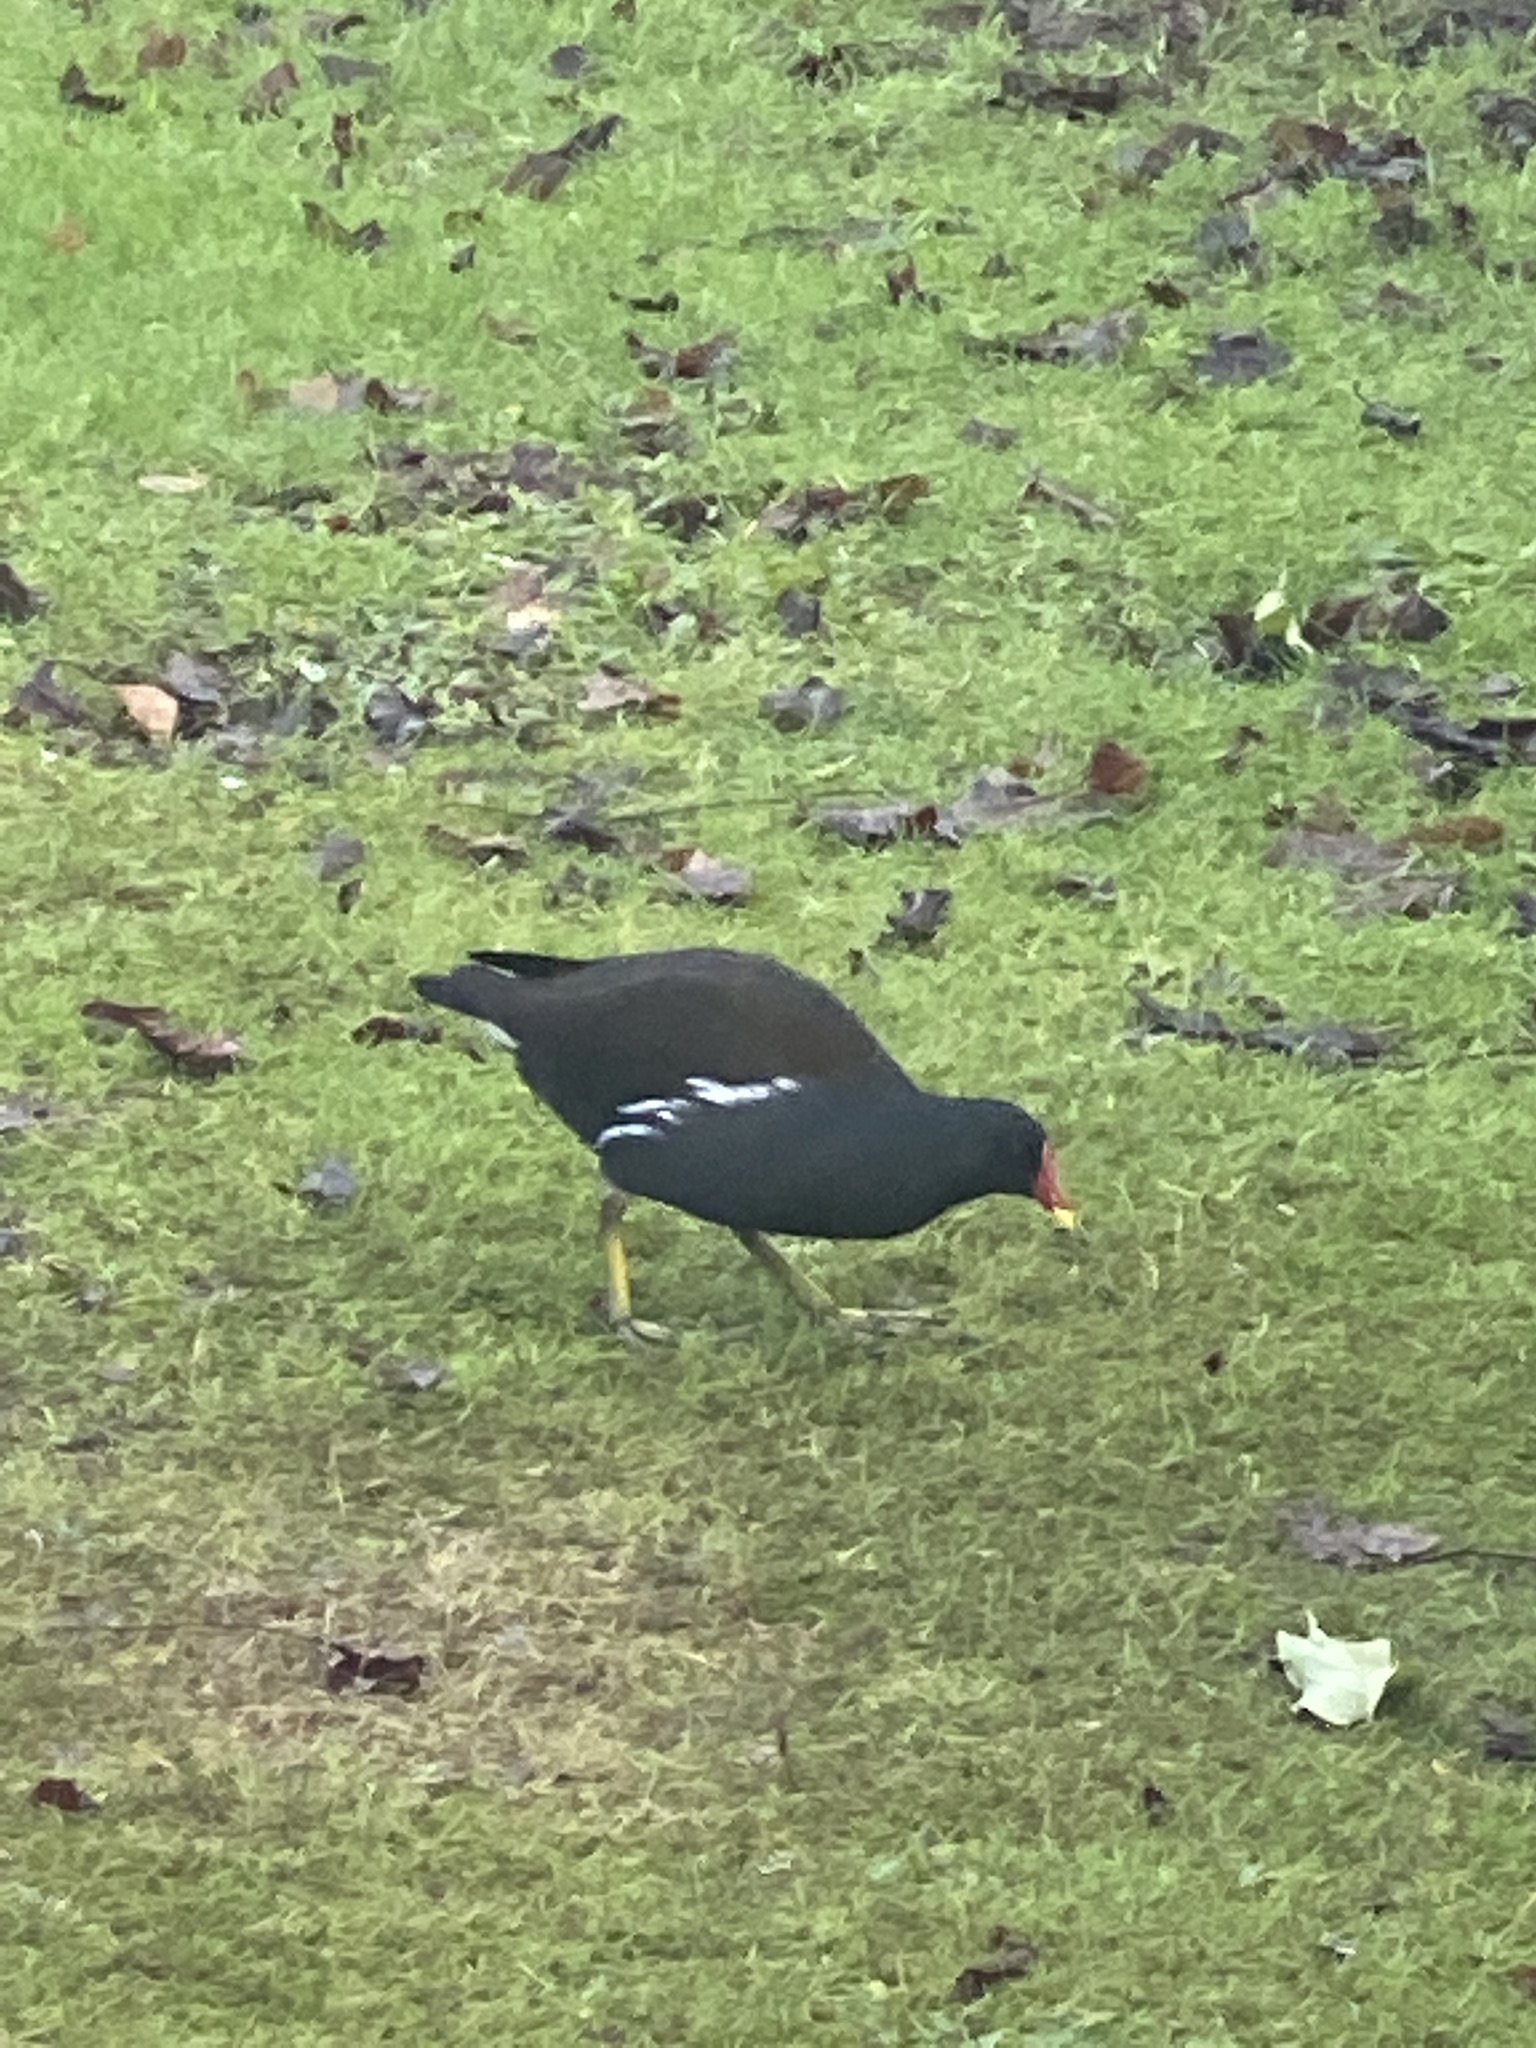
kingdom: Animalia
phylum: Chordata
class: Aves
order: Gruiformes
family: Rallidae
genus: Gallinula
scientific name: Gallinula chloropus
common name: Common moorhen
